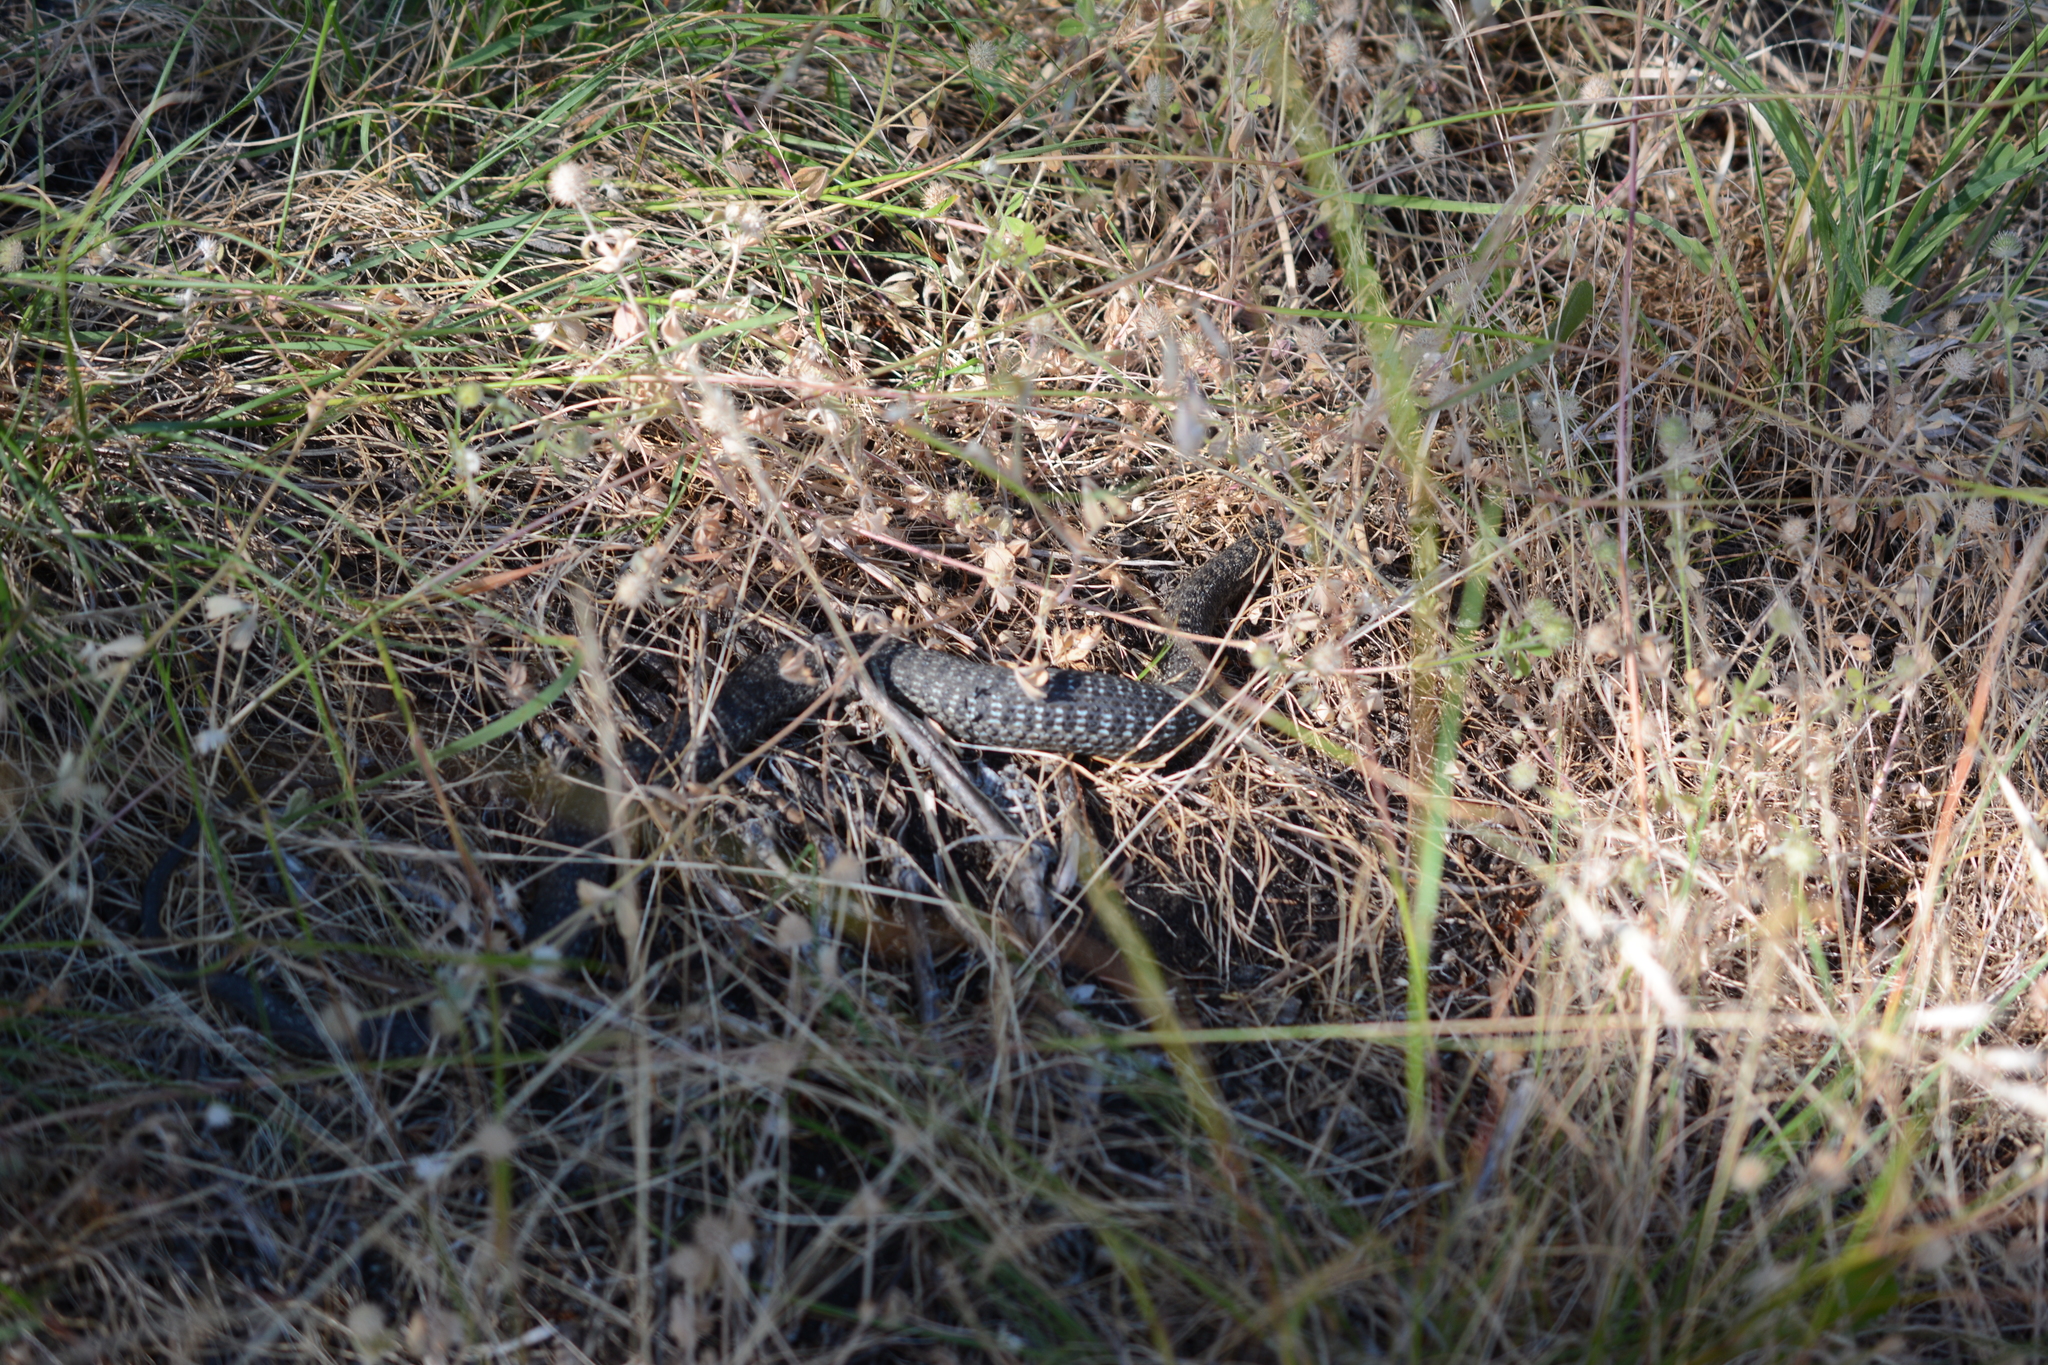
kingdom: Animalia
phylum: Chordata
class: Squamata
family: Colubridae
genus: Thamnophis
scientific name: Thamnophis elegans
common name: Western terrestrial garter snake
